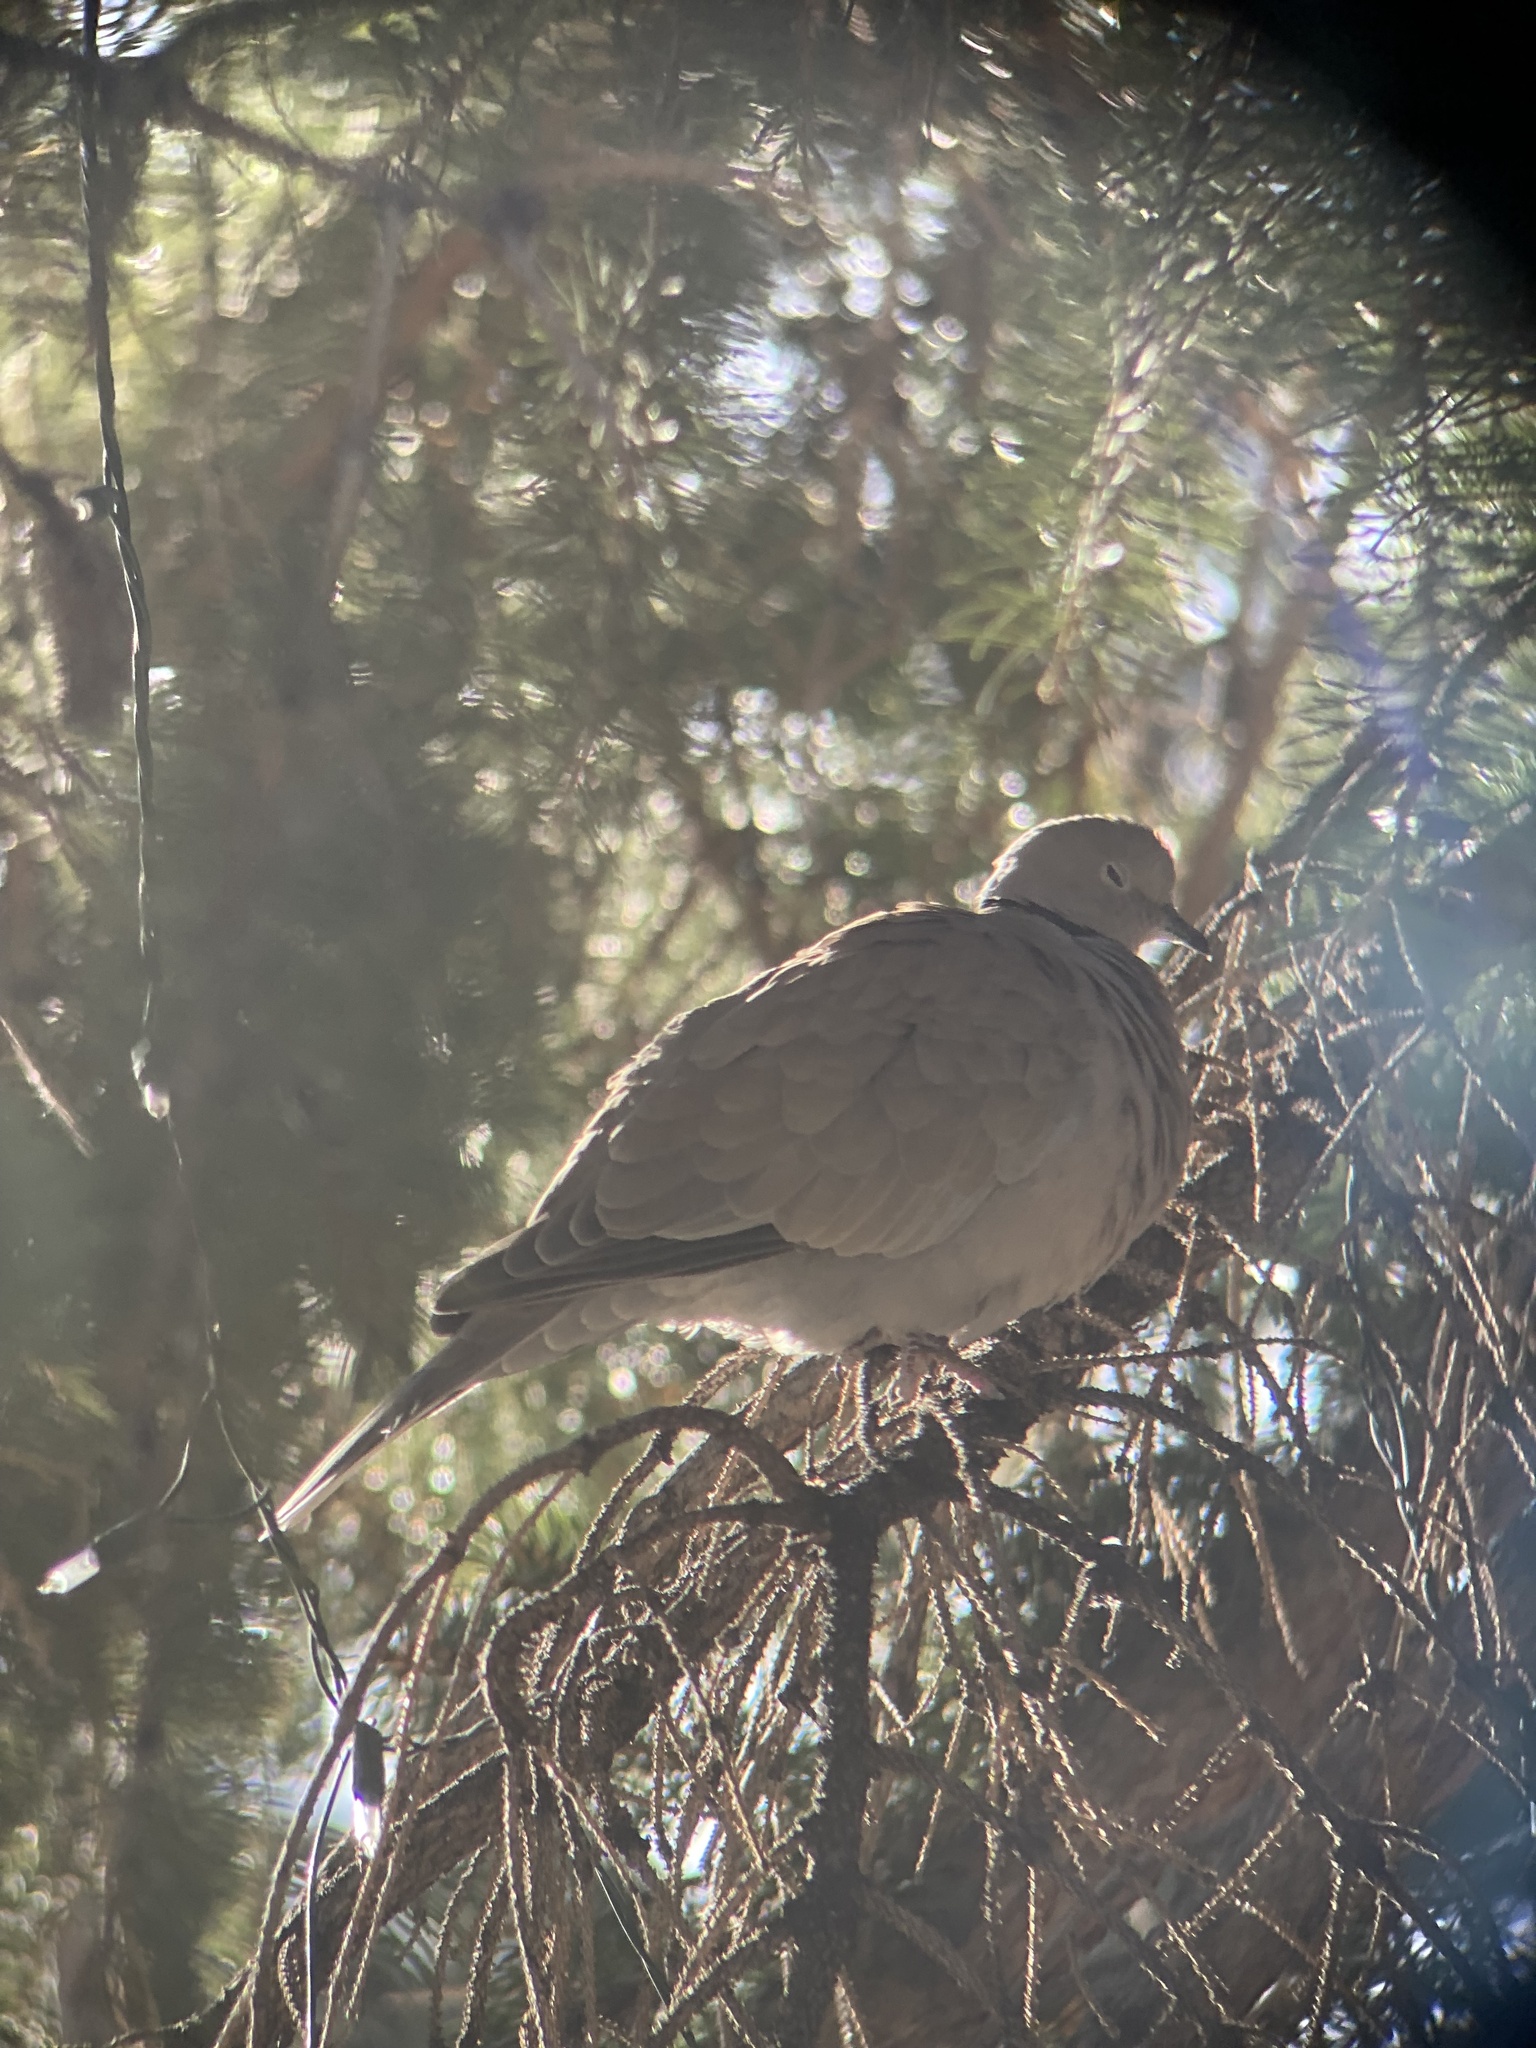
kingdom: Animalia
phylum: Chordata
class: Aves
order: Columbiformes
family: Columbidae
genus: Streptopelia
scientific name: Streptopelia decaocto
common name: Eurasian collared dove
